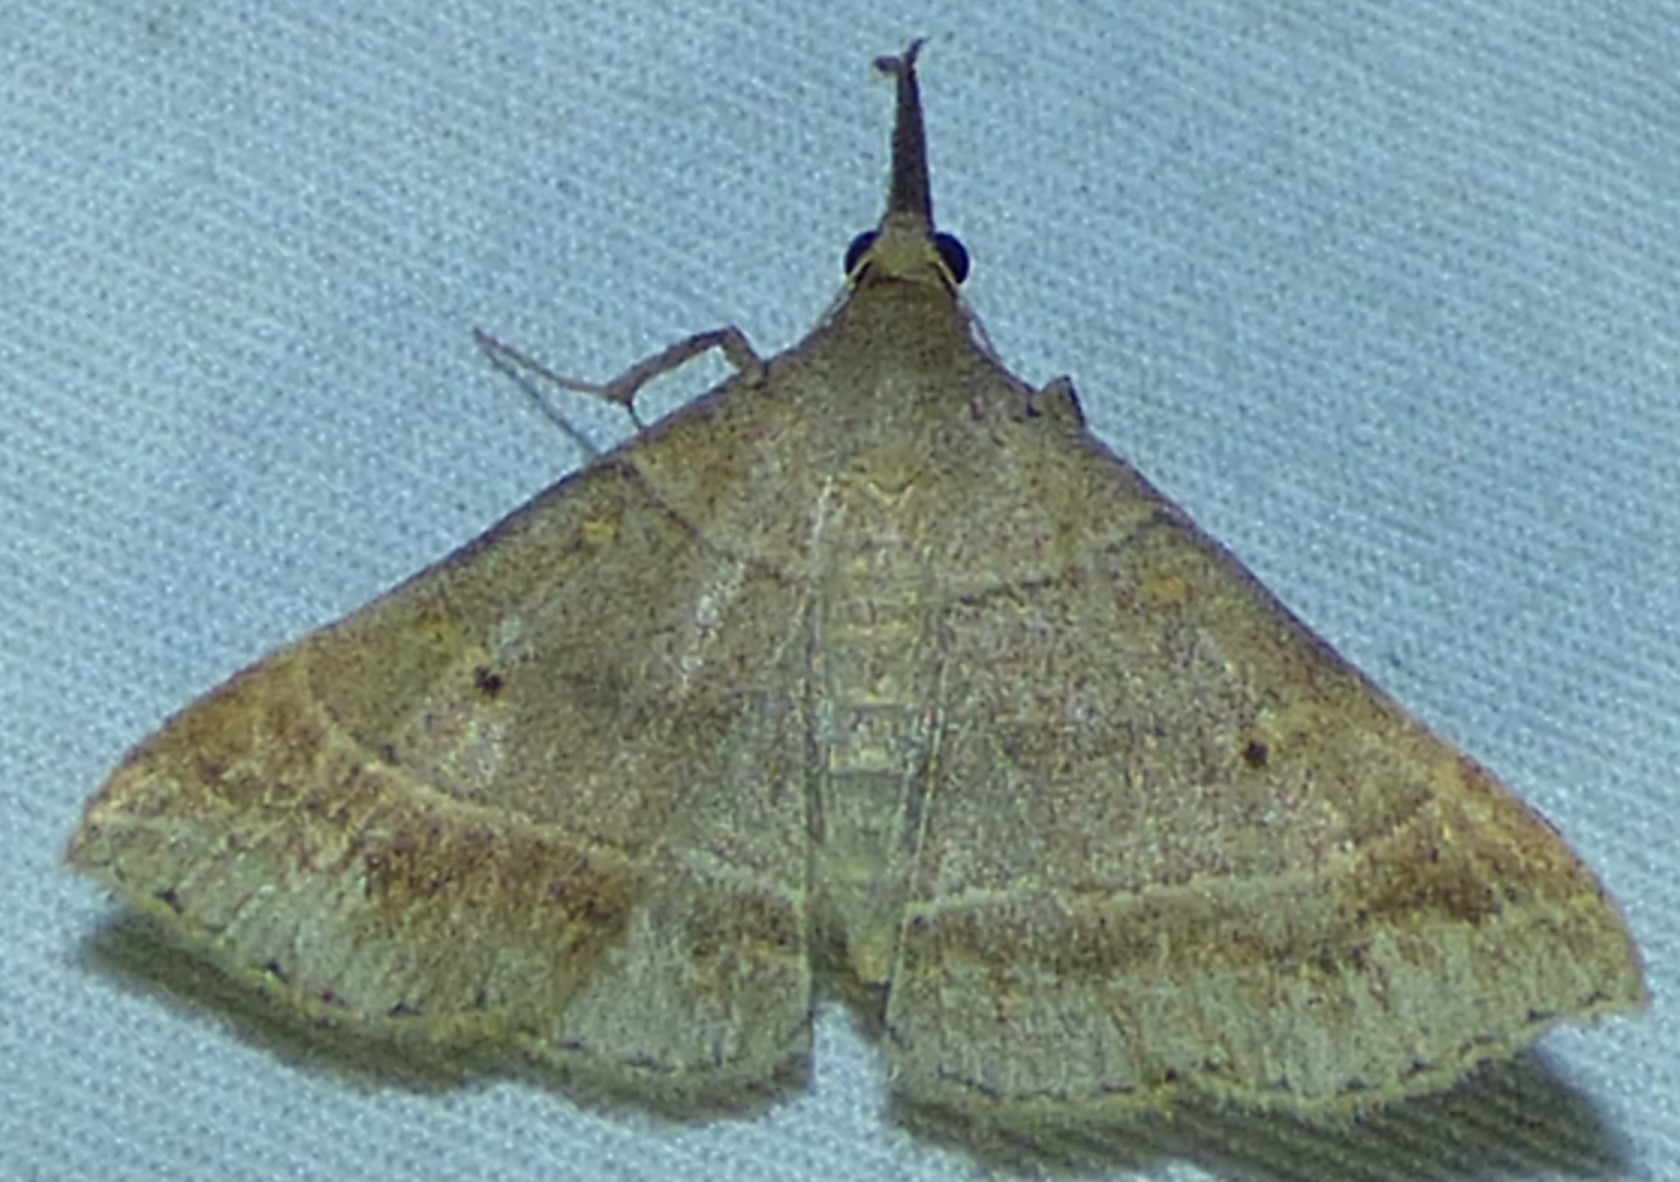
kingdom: Animalia
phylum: Arthropoda
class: Insecta
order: Lepidoptera
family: Erebidae
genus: Renia
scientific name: Renia flavipunctalis
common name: Yellow-spotted renia moth
